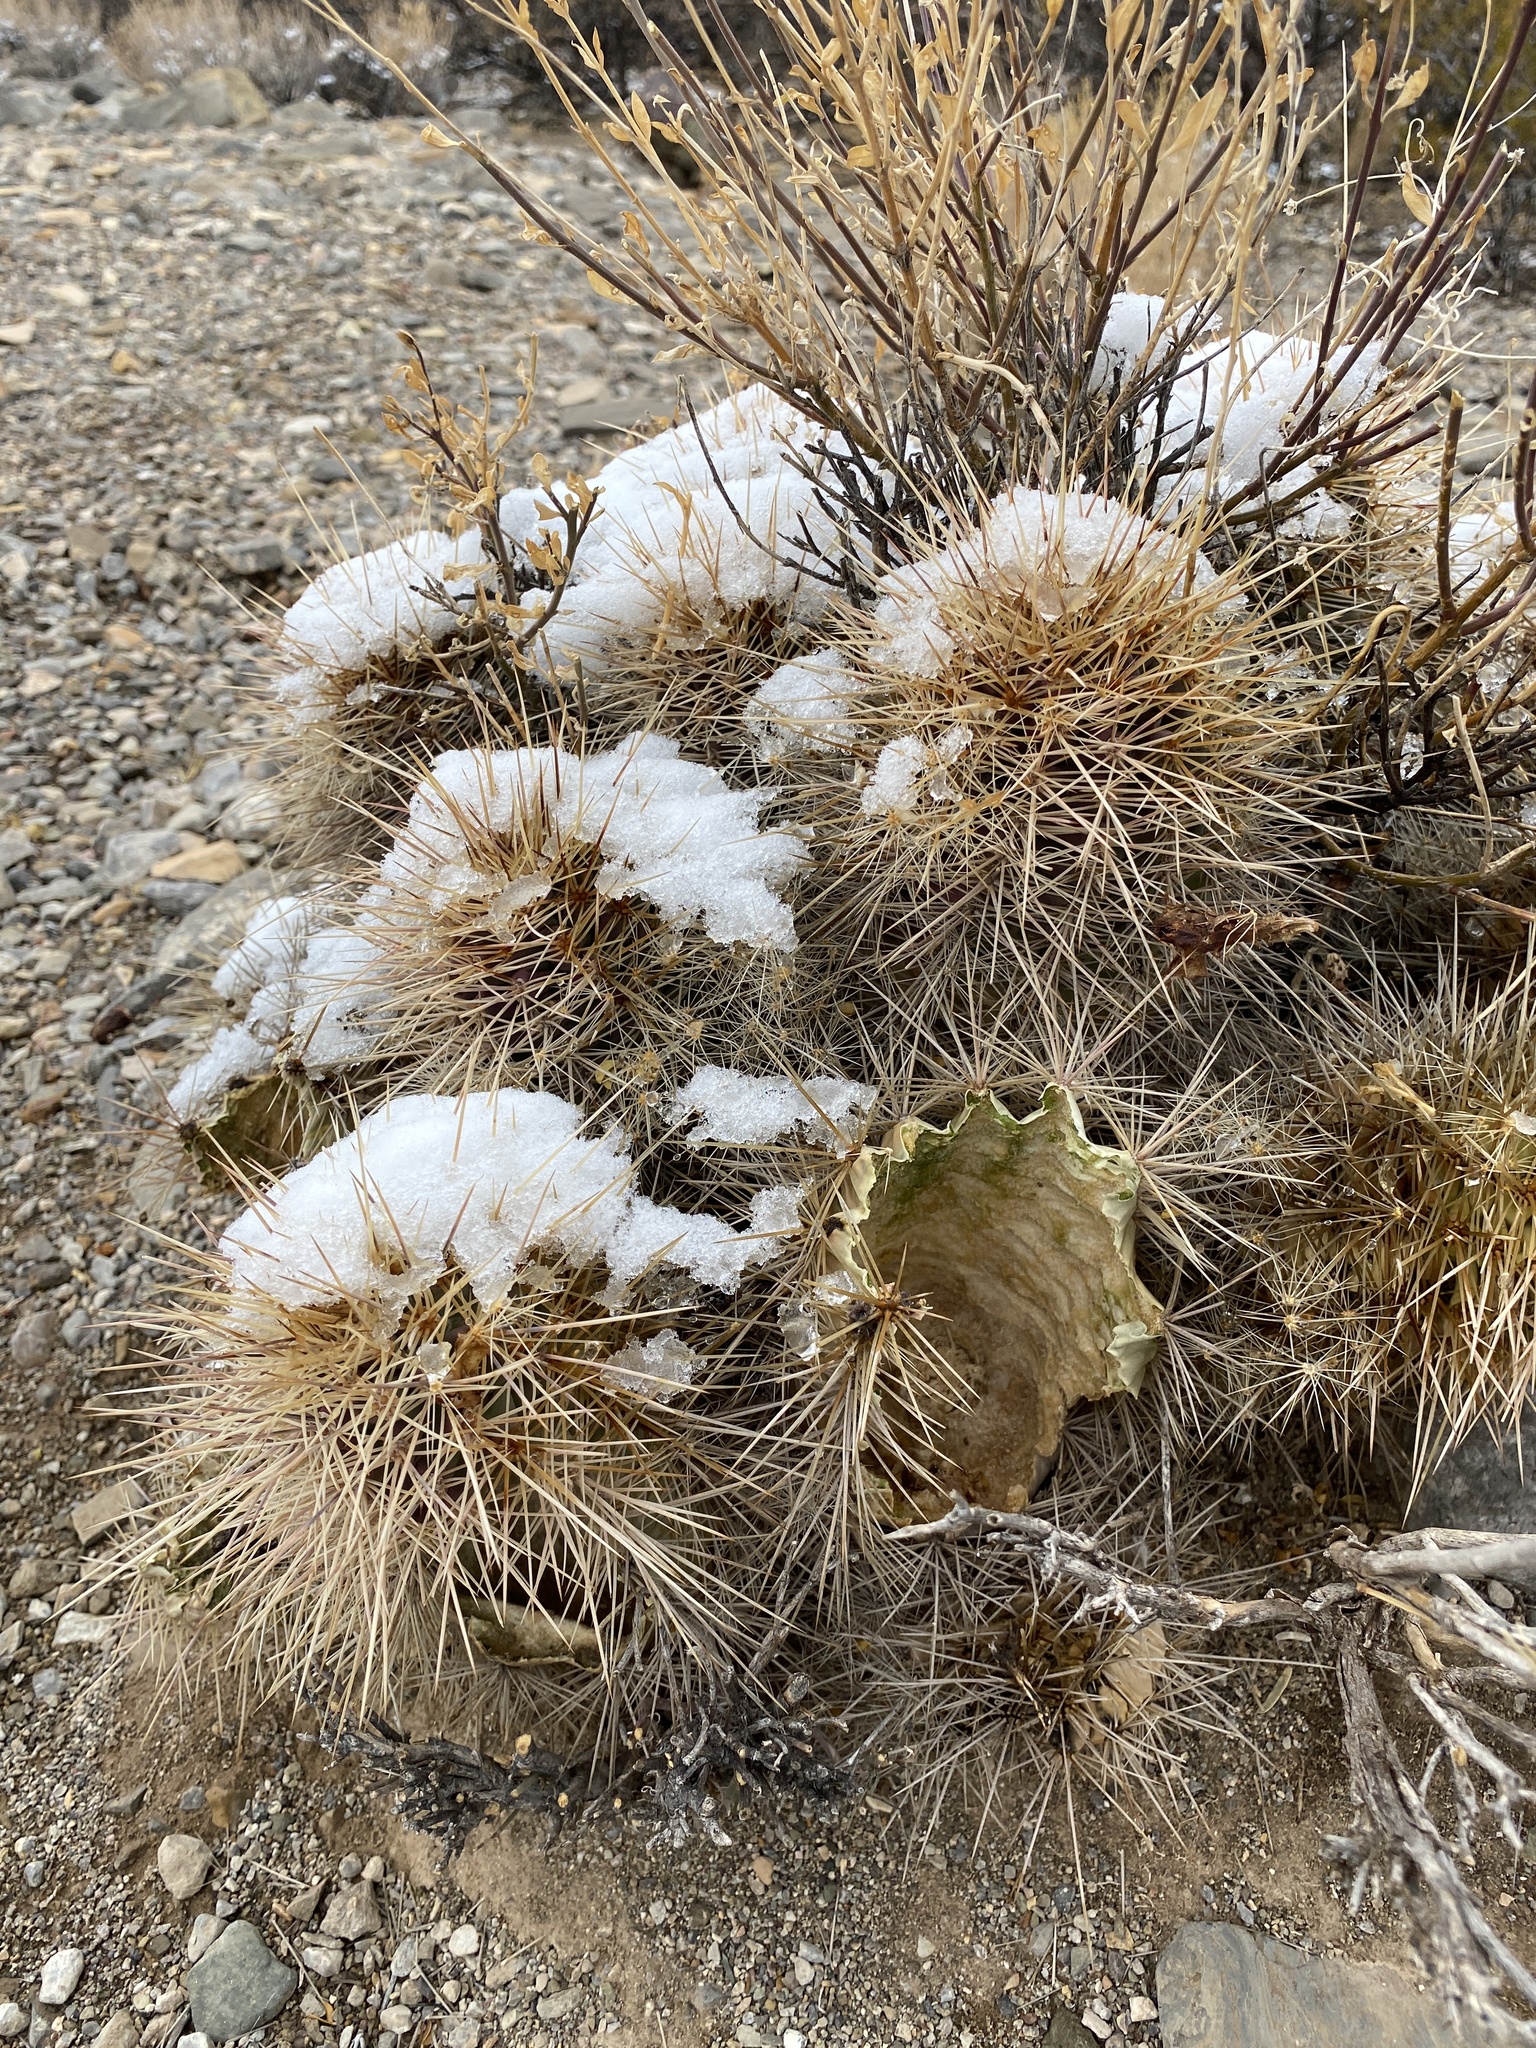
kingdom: Plantae
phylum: Tracheophyta
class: Magnoliopsida
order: Caryophyllales
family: Cactaceae
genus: Echinocereus
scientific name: Echinocereus coccineus
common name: Scarlet hedgehog cactus
